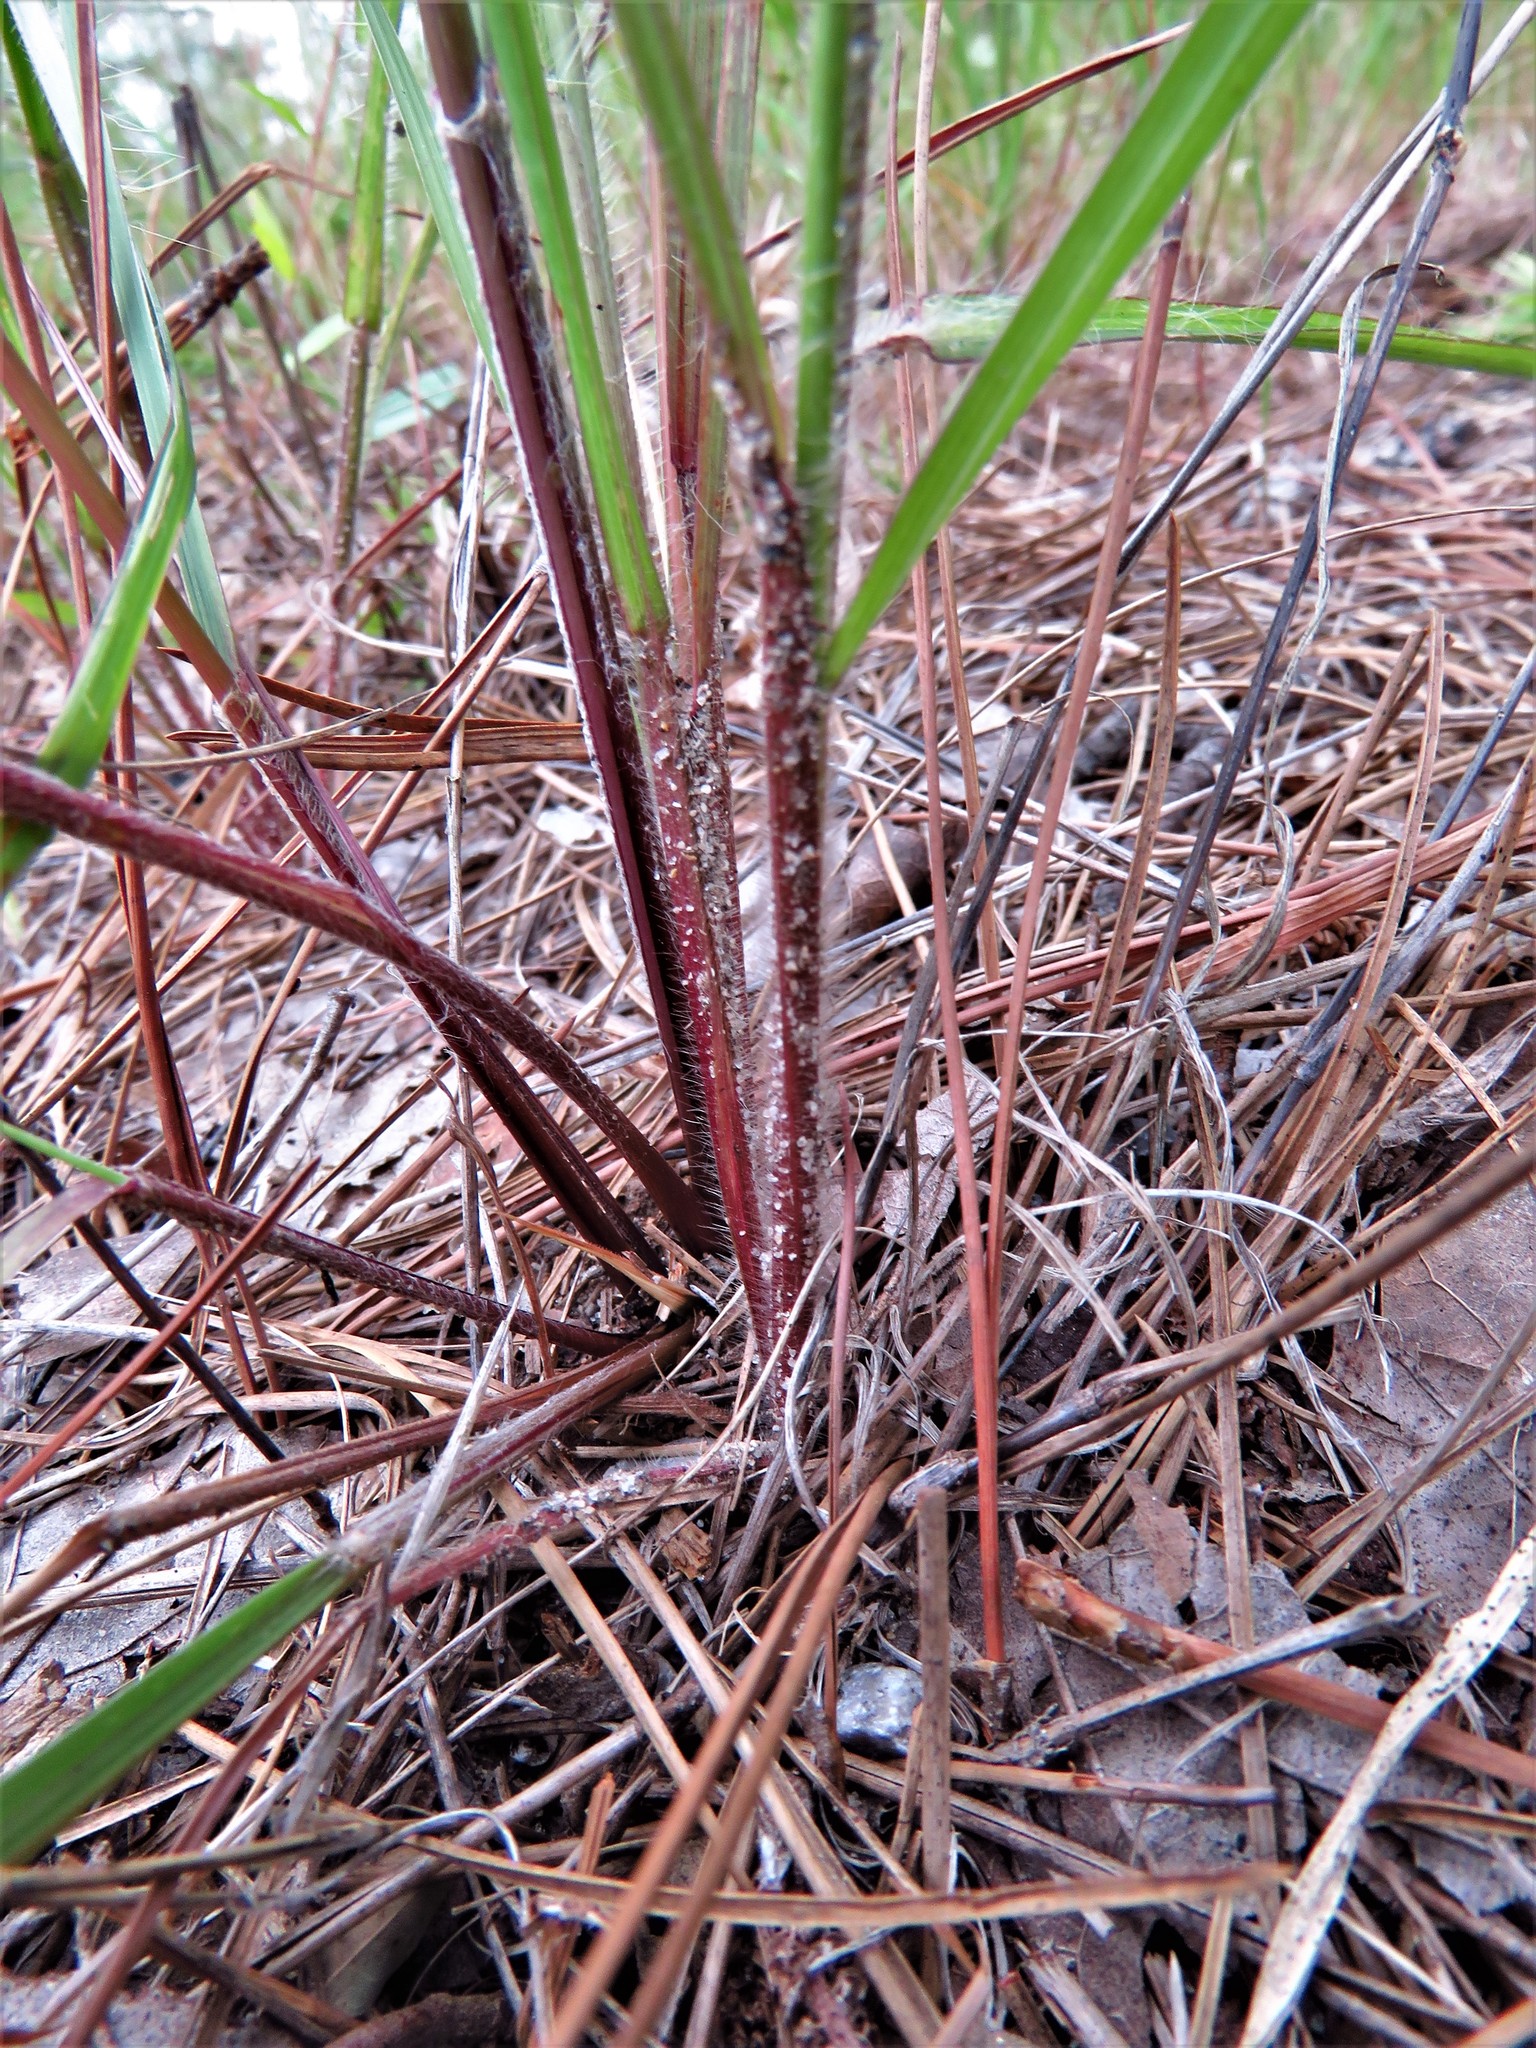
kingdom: Plantae
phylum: Tracheophyta
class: Liliopsida
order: Poales
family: Poaceae
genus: Aristida
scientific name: Aristida desmantha
